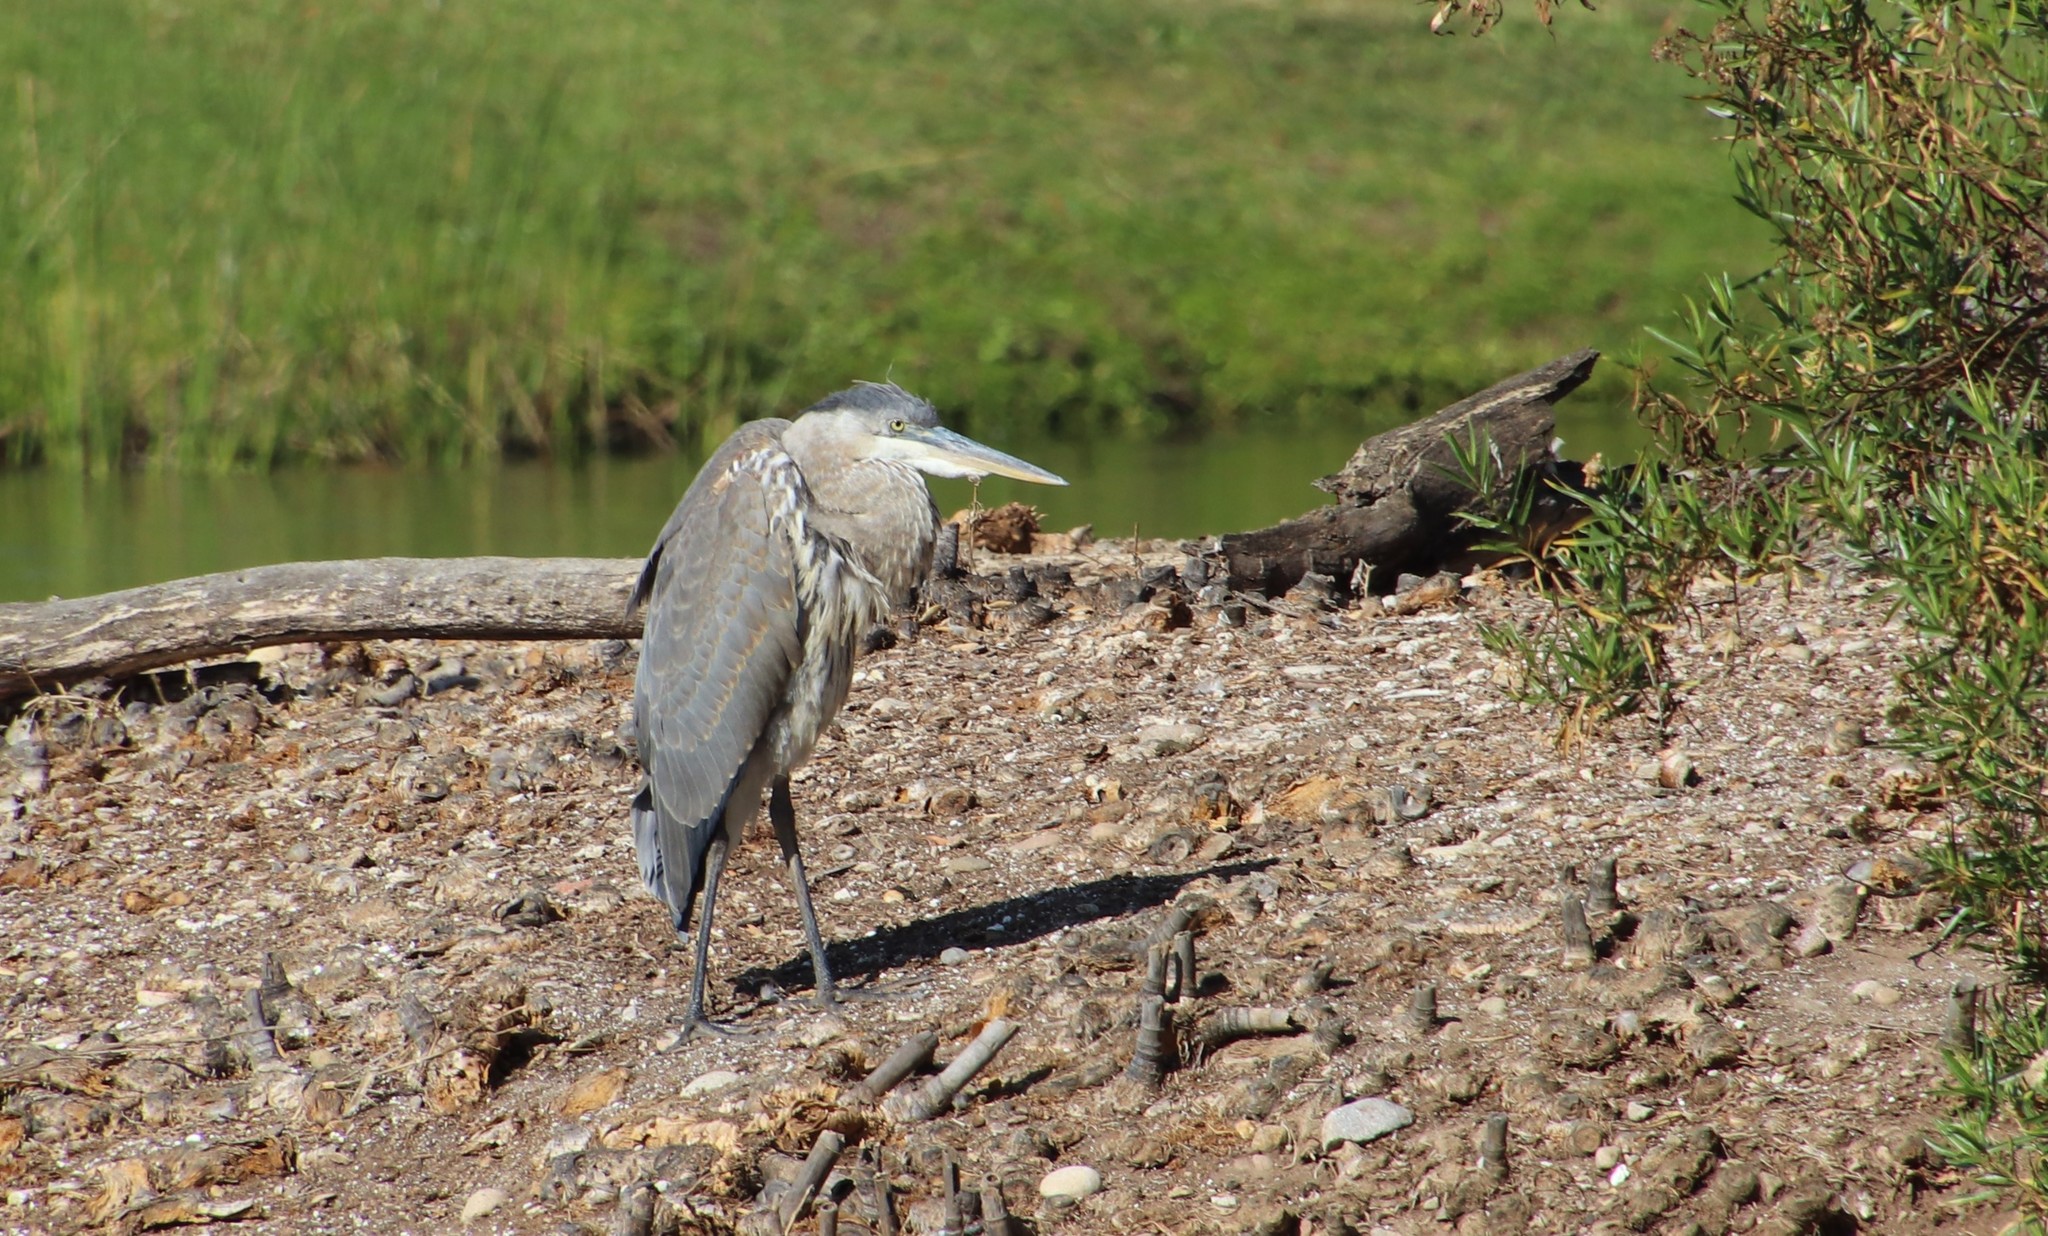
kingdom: Animalia
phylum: Chordata
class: Aves
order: Pelecaniformes
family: Ardeidae
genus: Ardea
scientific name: Ardea herodias
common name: Great blue heron
